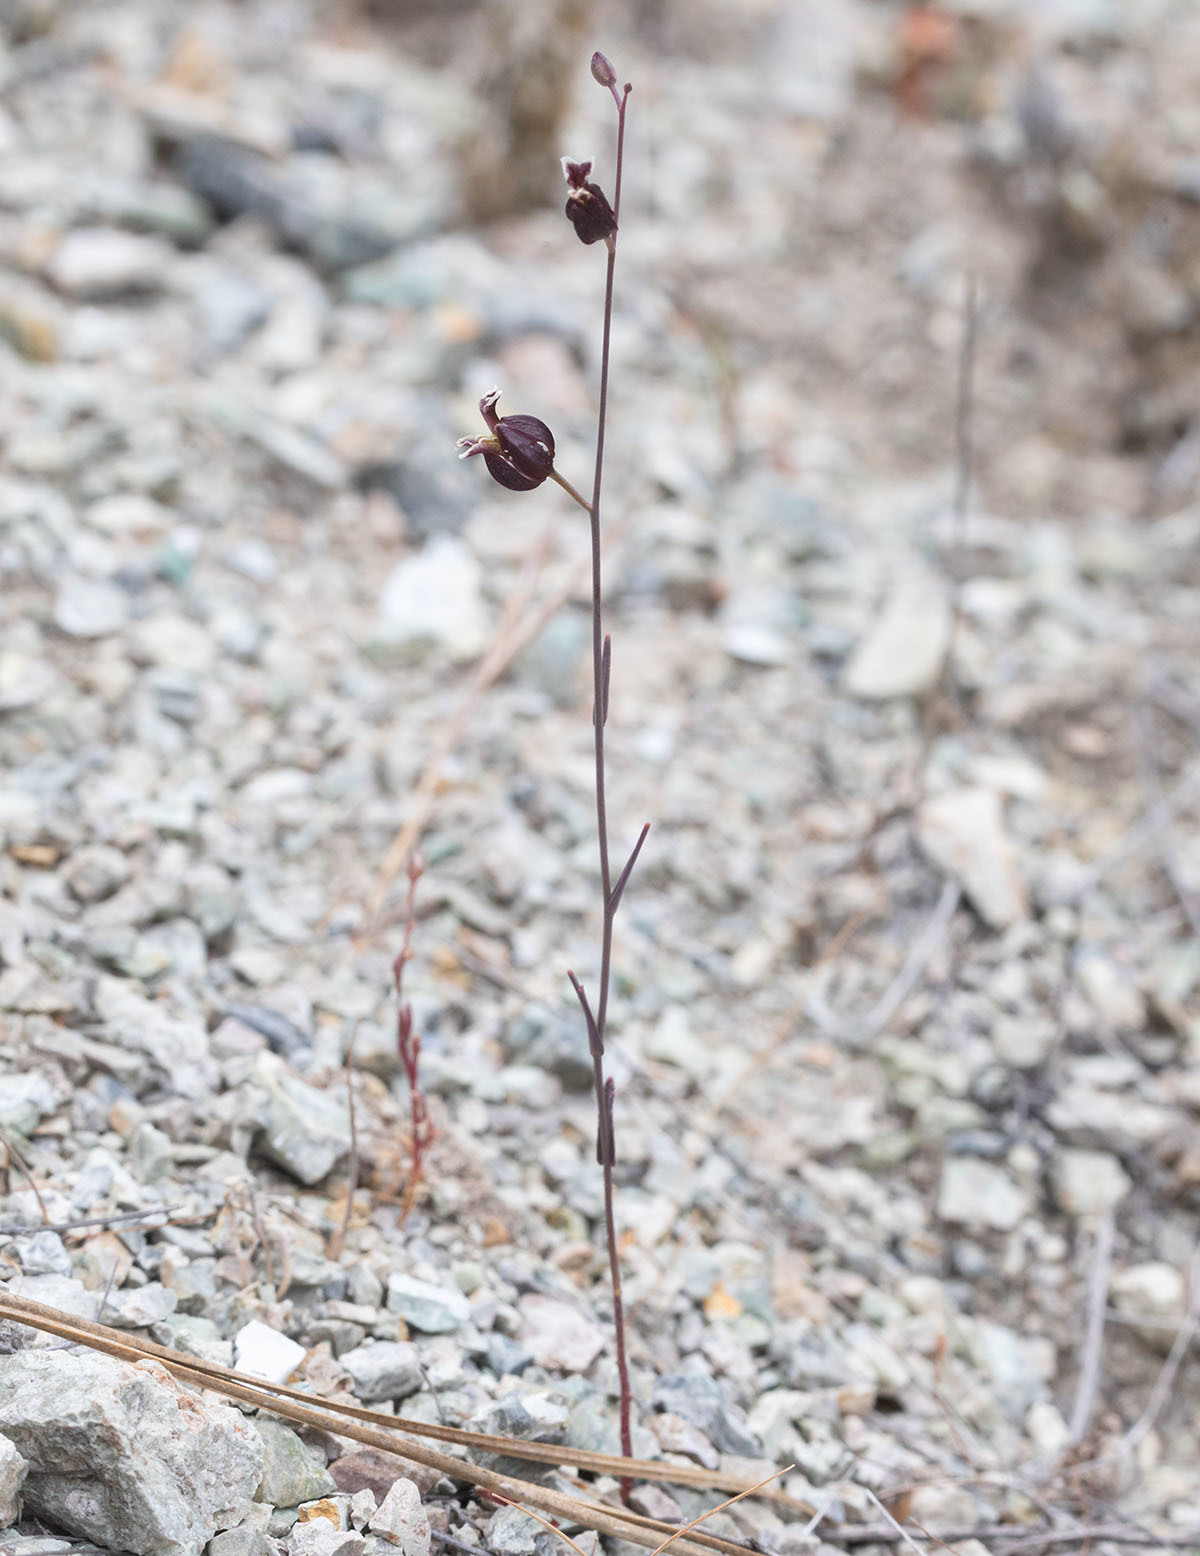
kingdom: Plantae
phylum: Tracheophyta
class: Magnoliopsida
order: Brassicales
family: Brassicaceae
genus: Streptanthus
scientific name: Streptanthus glandulosus
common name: Jewel-flower
